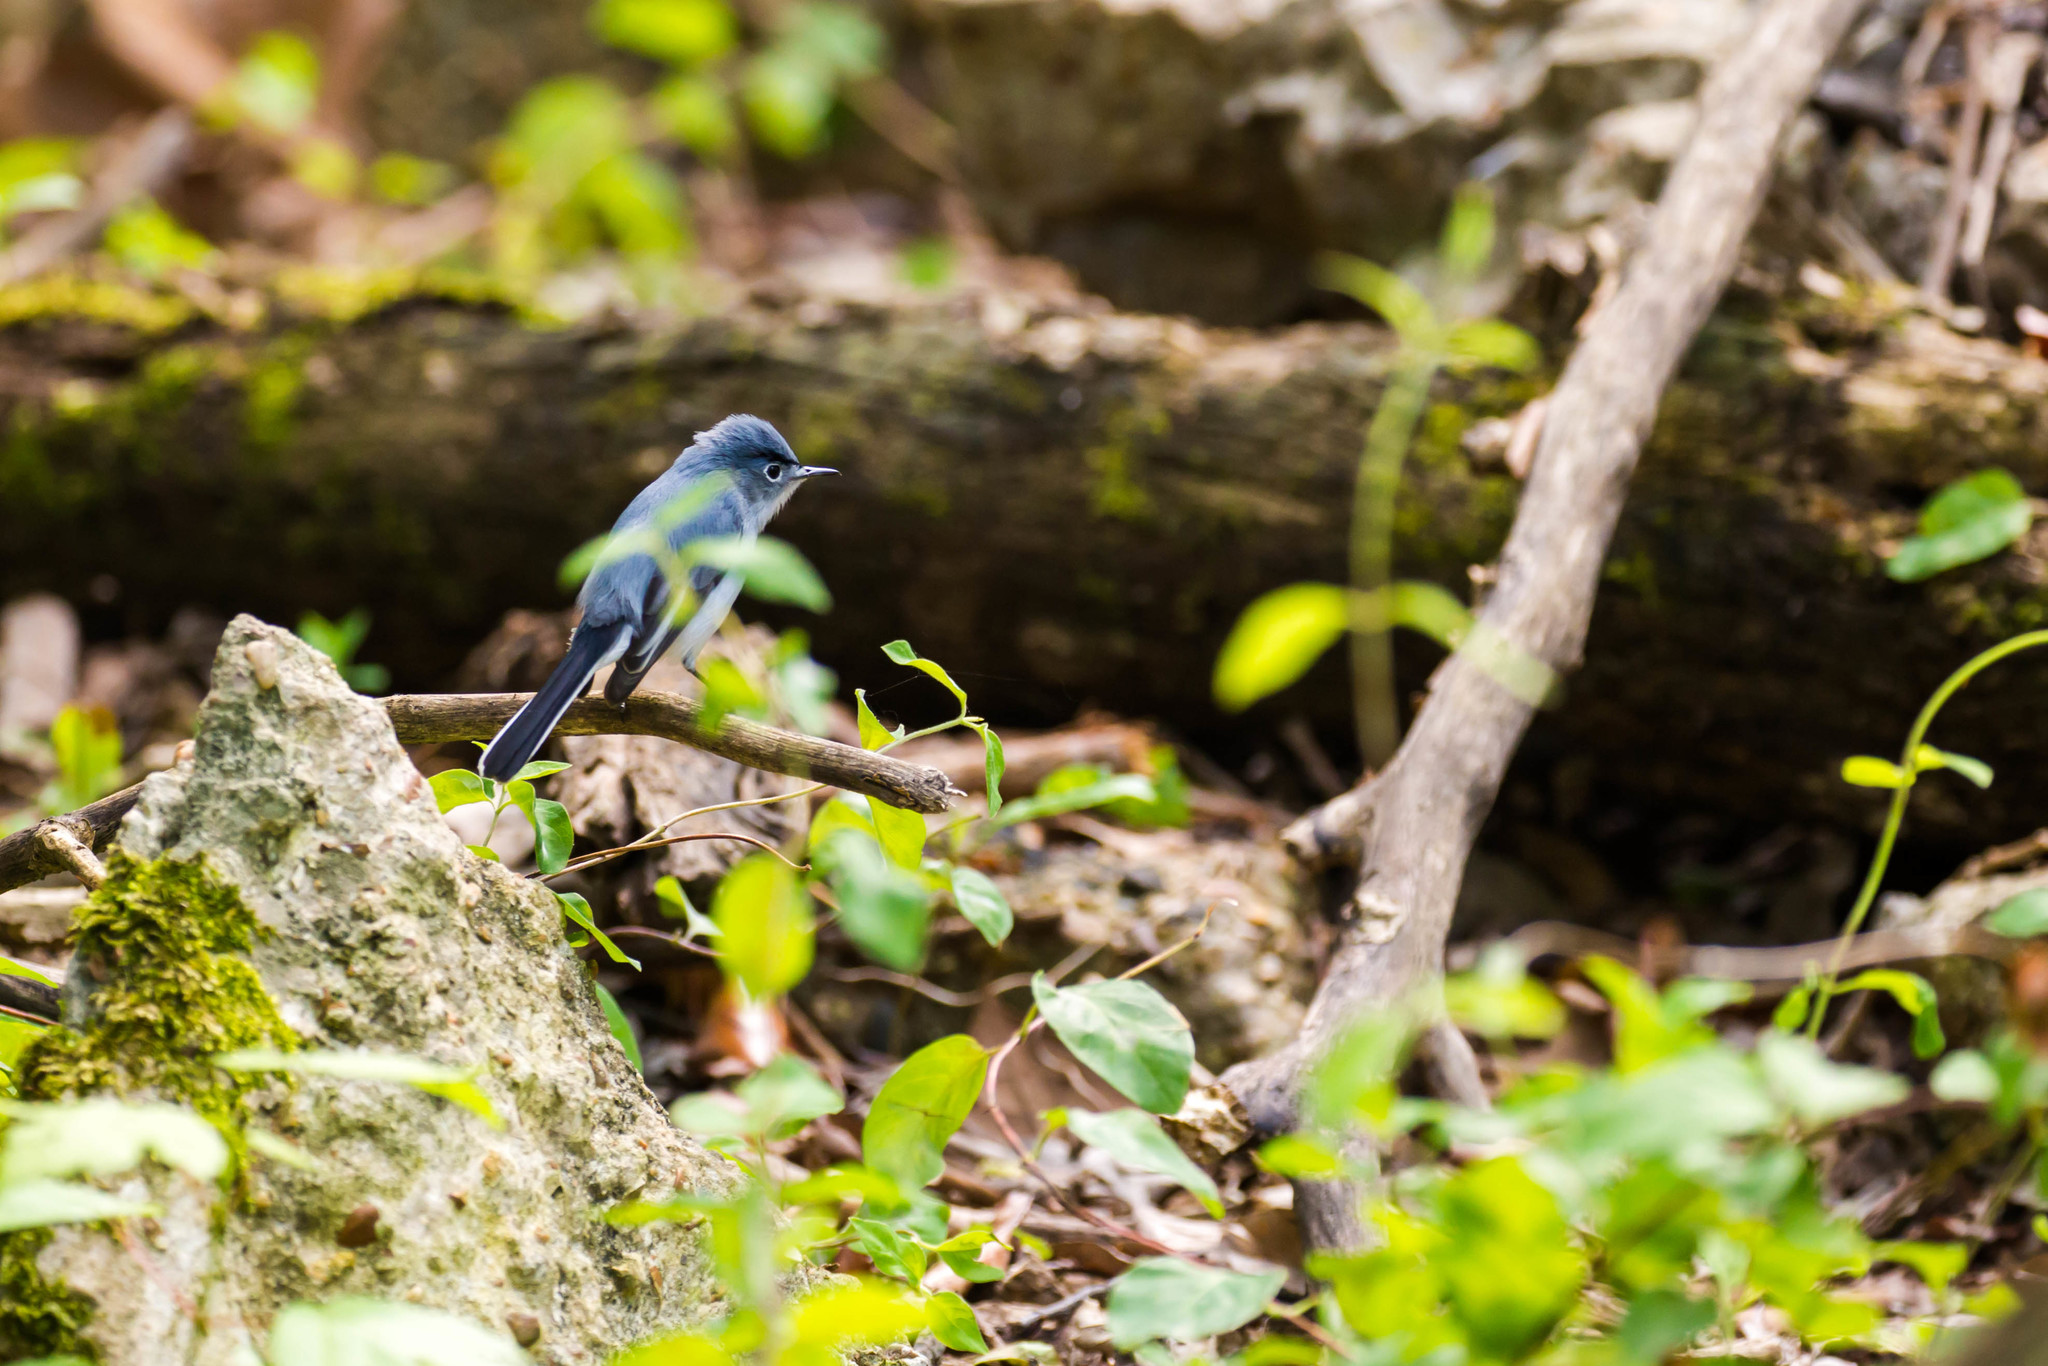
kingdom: Animalia
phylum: Chordata
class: Aves
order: Passeriformes
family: Polioptilidae
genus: Polioptila
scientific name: Polioptila caerulea
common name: Blue-gray gnatcatcher
